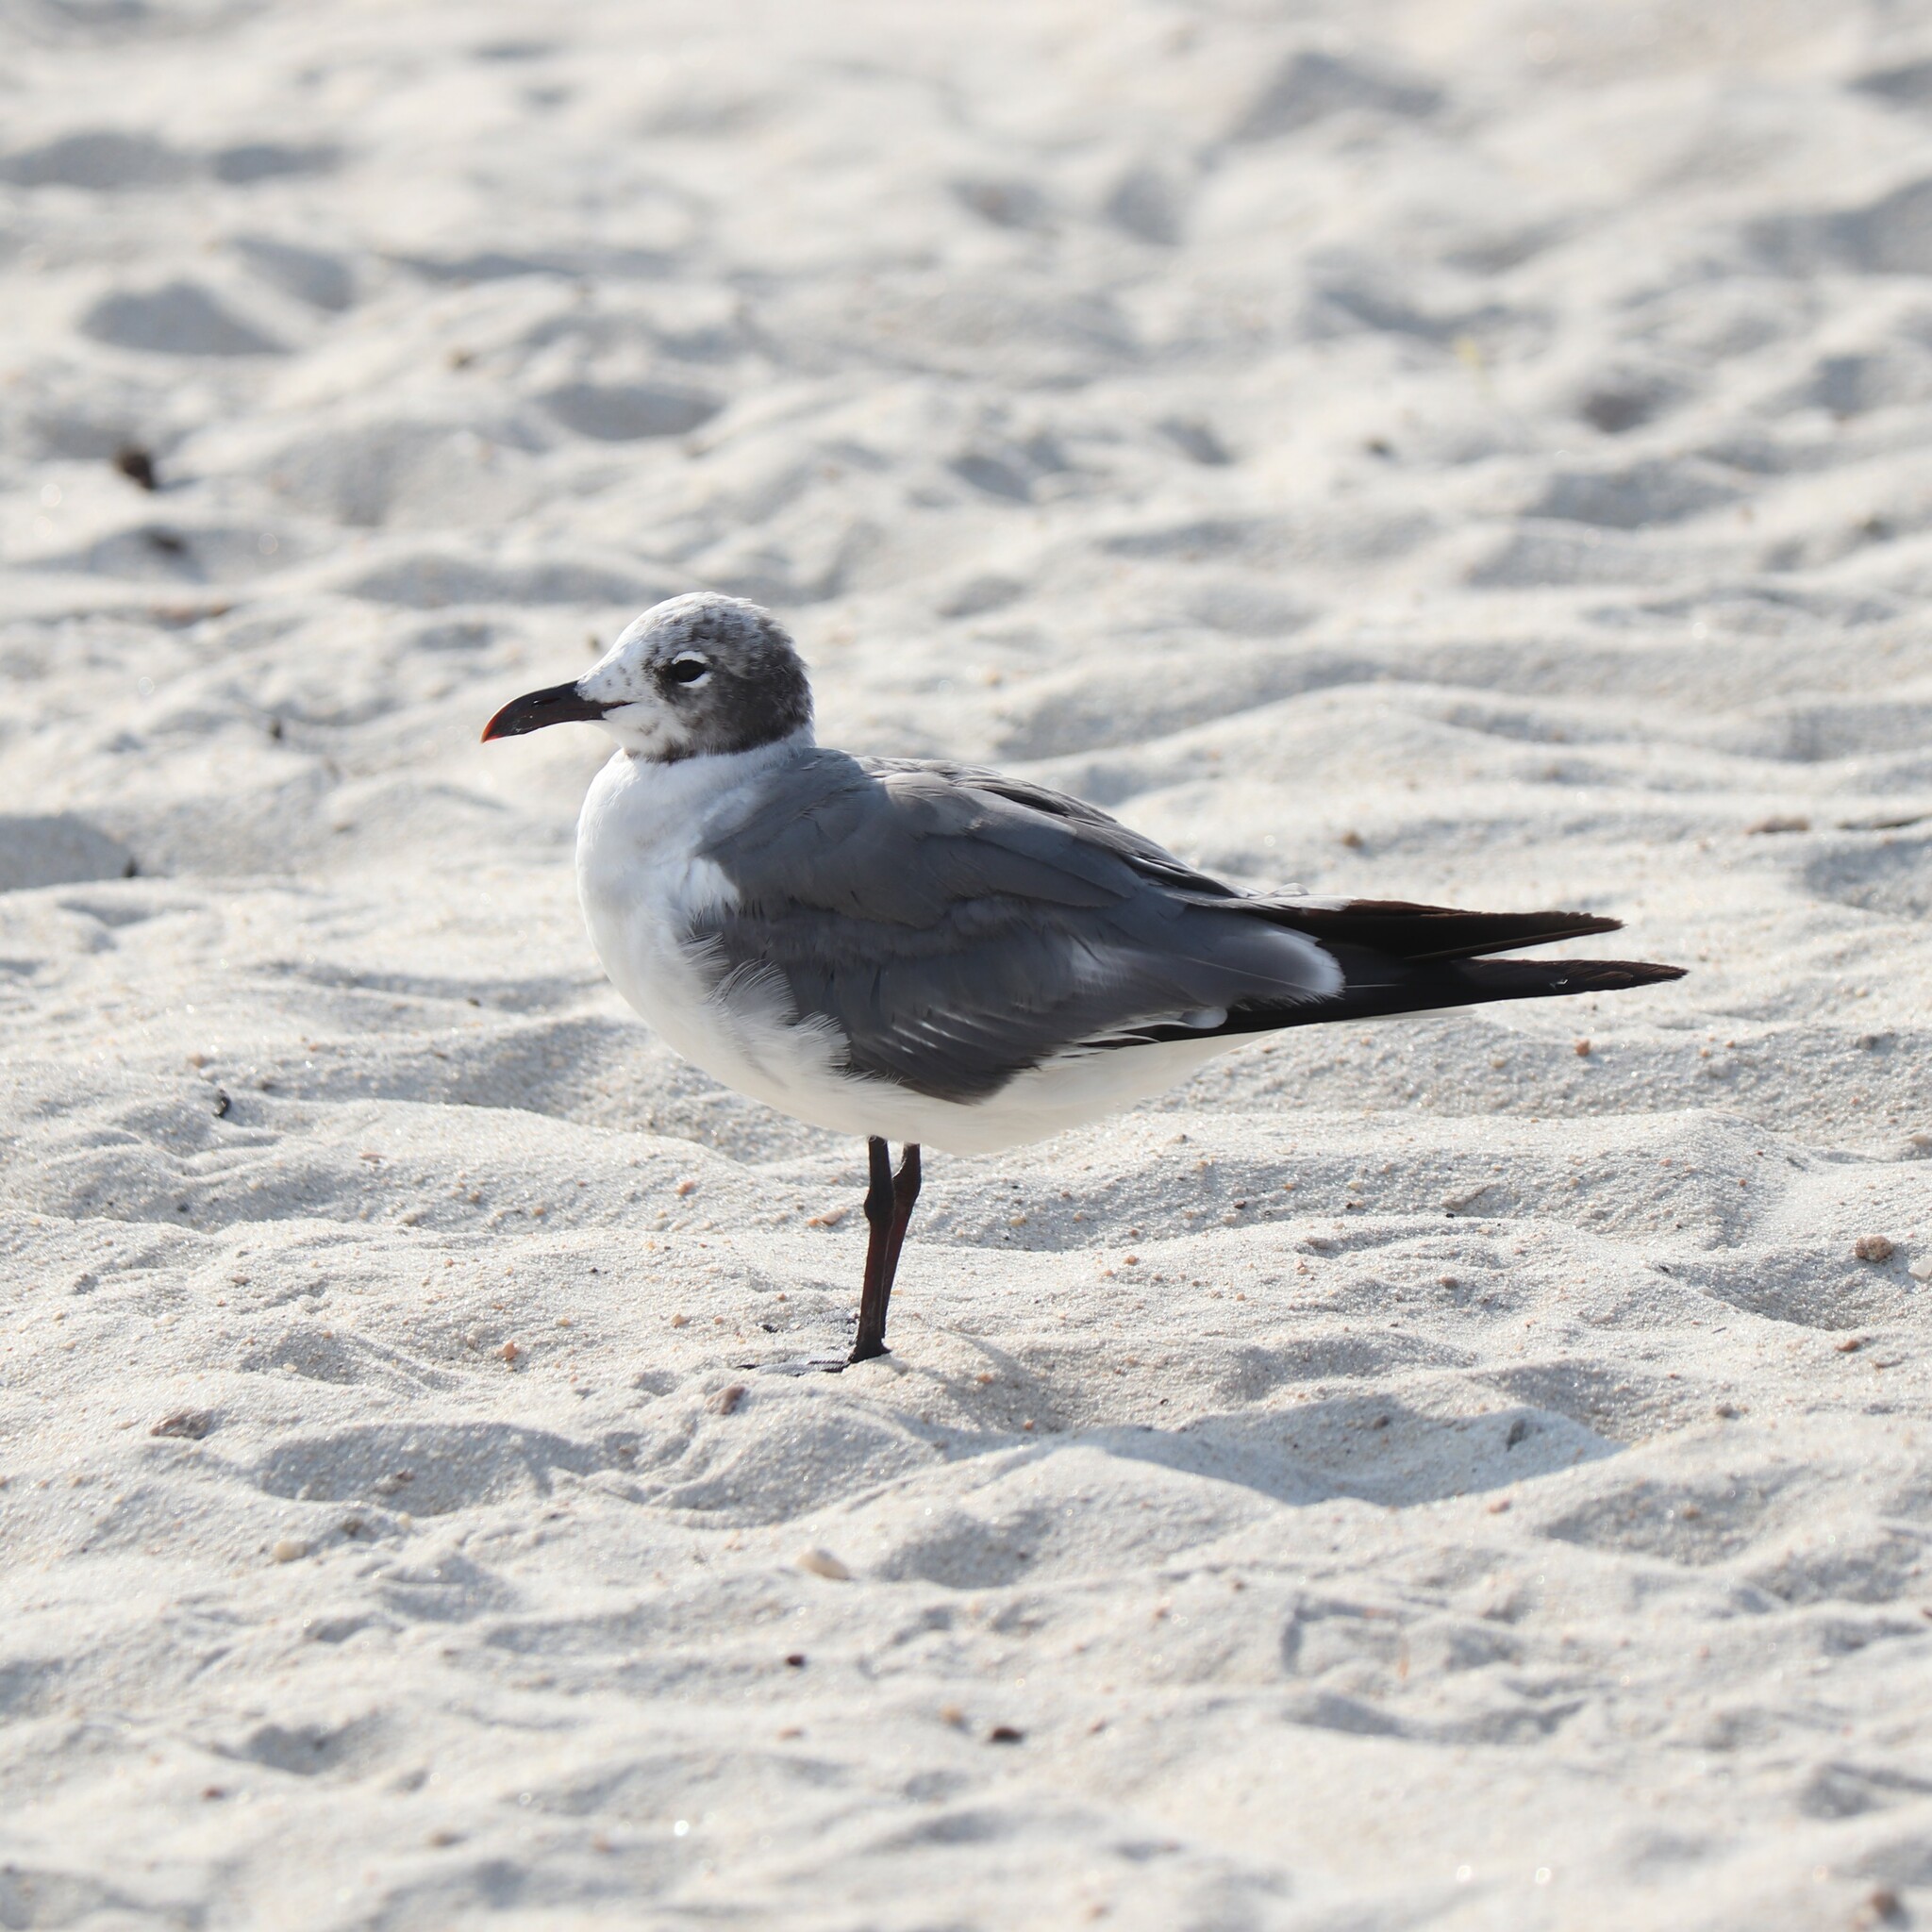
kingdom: Animalia
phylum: Chordata
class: Aves
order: Charadriiformes
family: Laridae
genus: Leucophaeus
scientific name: Leucophaeus atricilla
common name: Laughing gull
